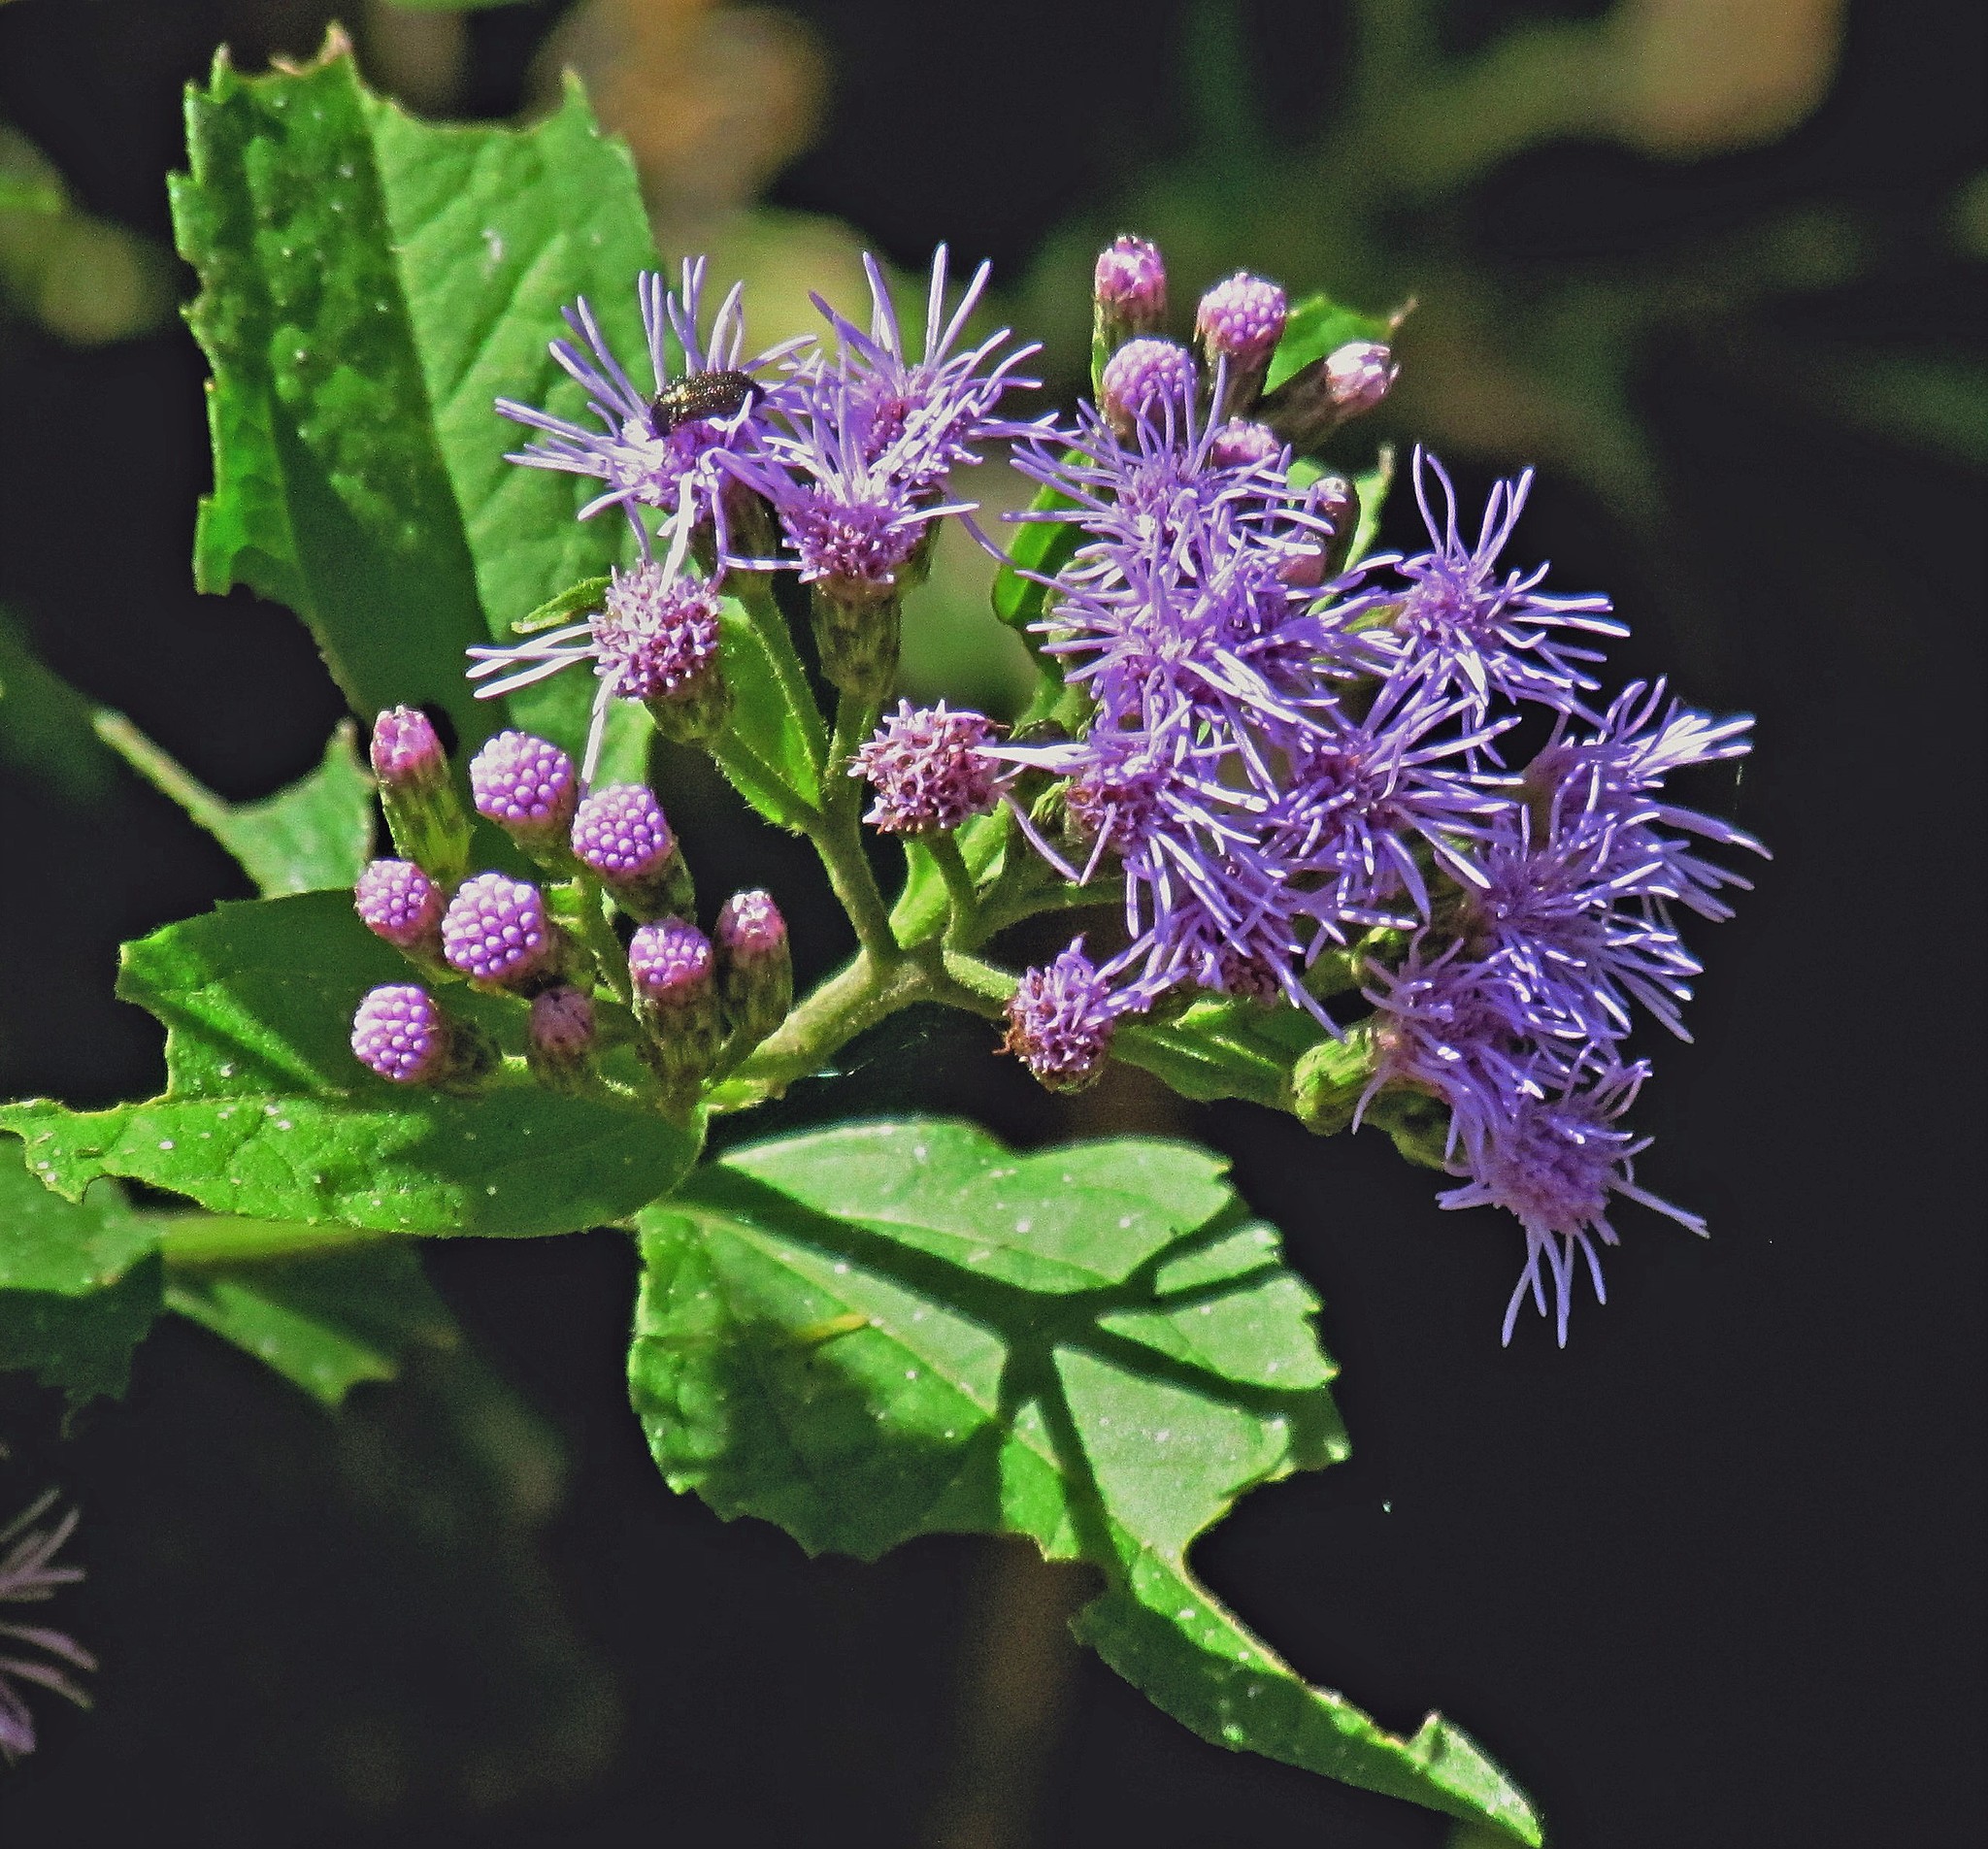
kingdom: Plantae
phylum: Tracheophyta
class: Magnoliopsida
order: Asterales
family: Asteraceae
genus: Chromolaena
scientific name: Chromolaena laevigata
